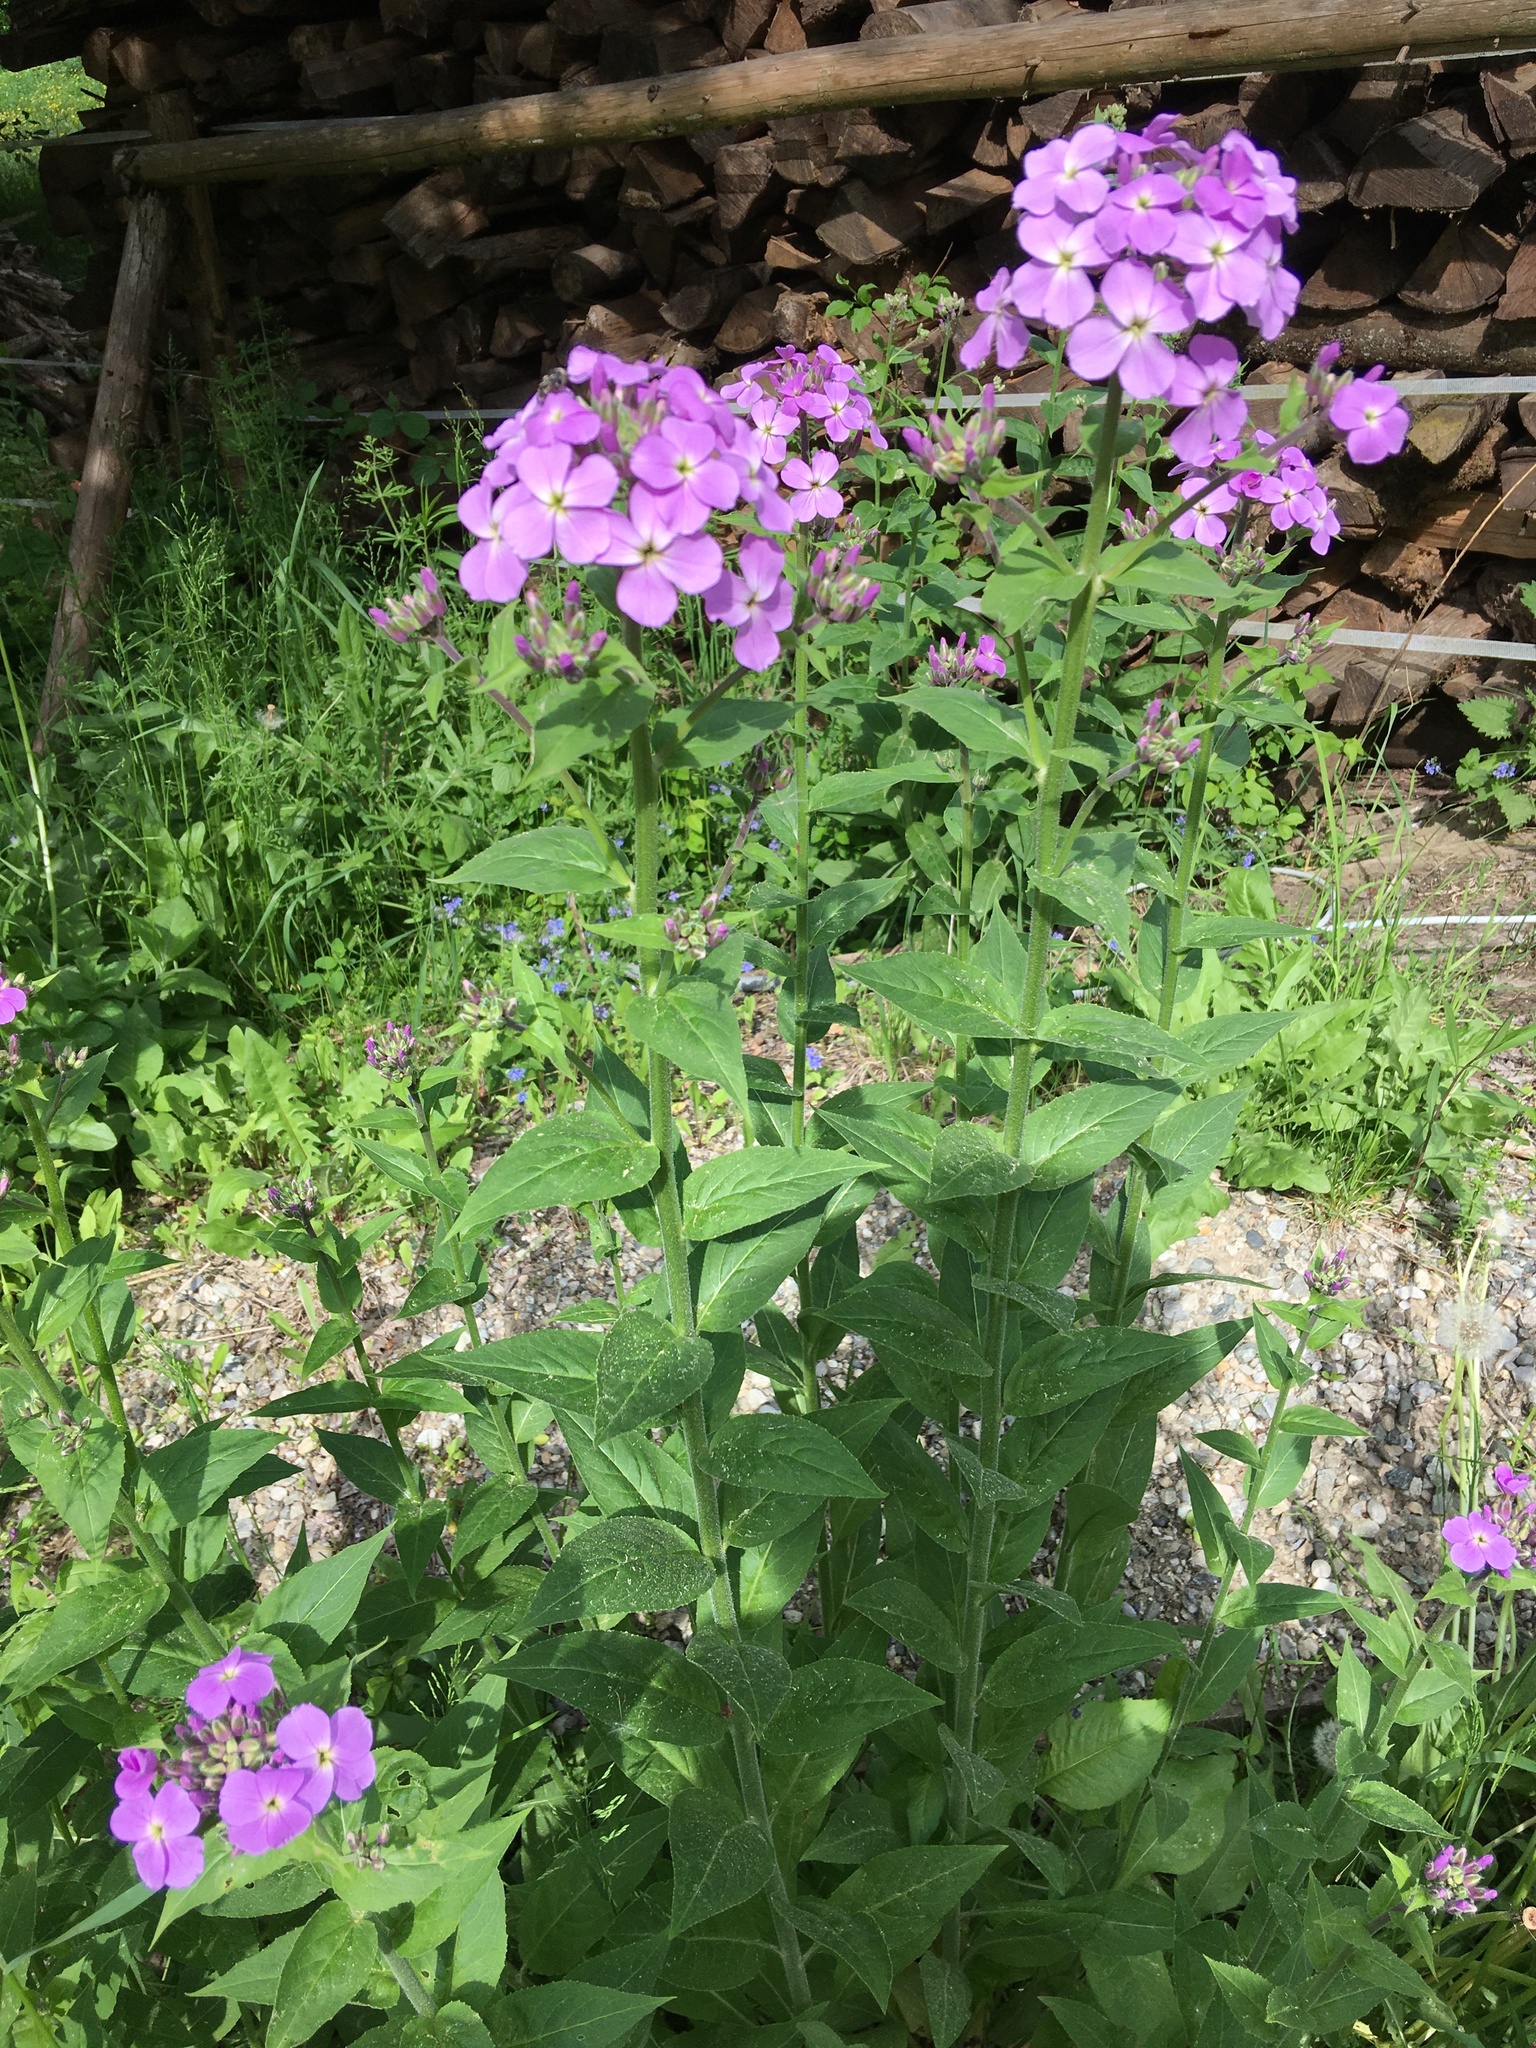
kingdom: Plantae
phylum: Tracheophyta
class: Magnoliopsida
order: Brassicales
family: Brassicaceae
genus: Hesperis
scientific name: Hesperis matronalis
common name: Dame's-violet
